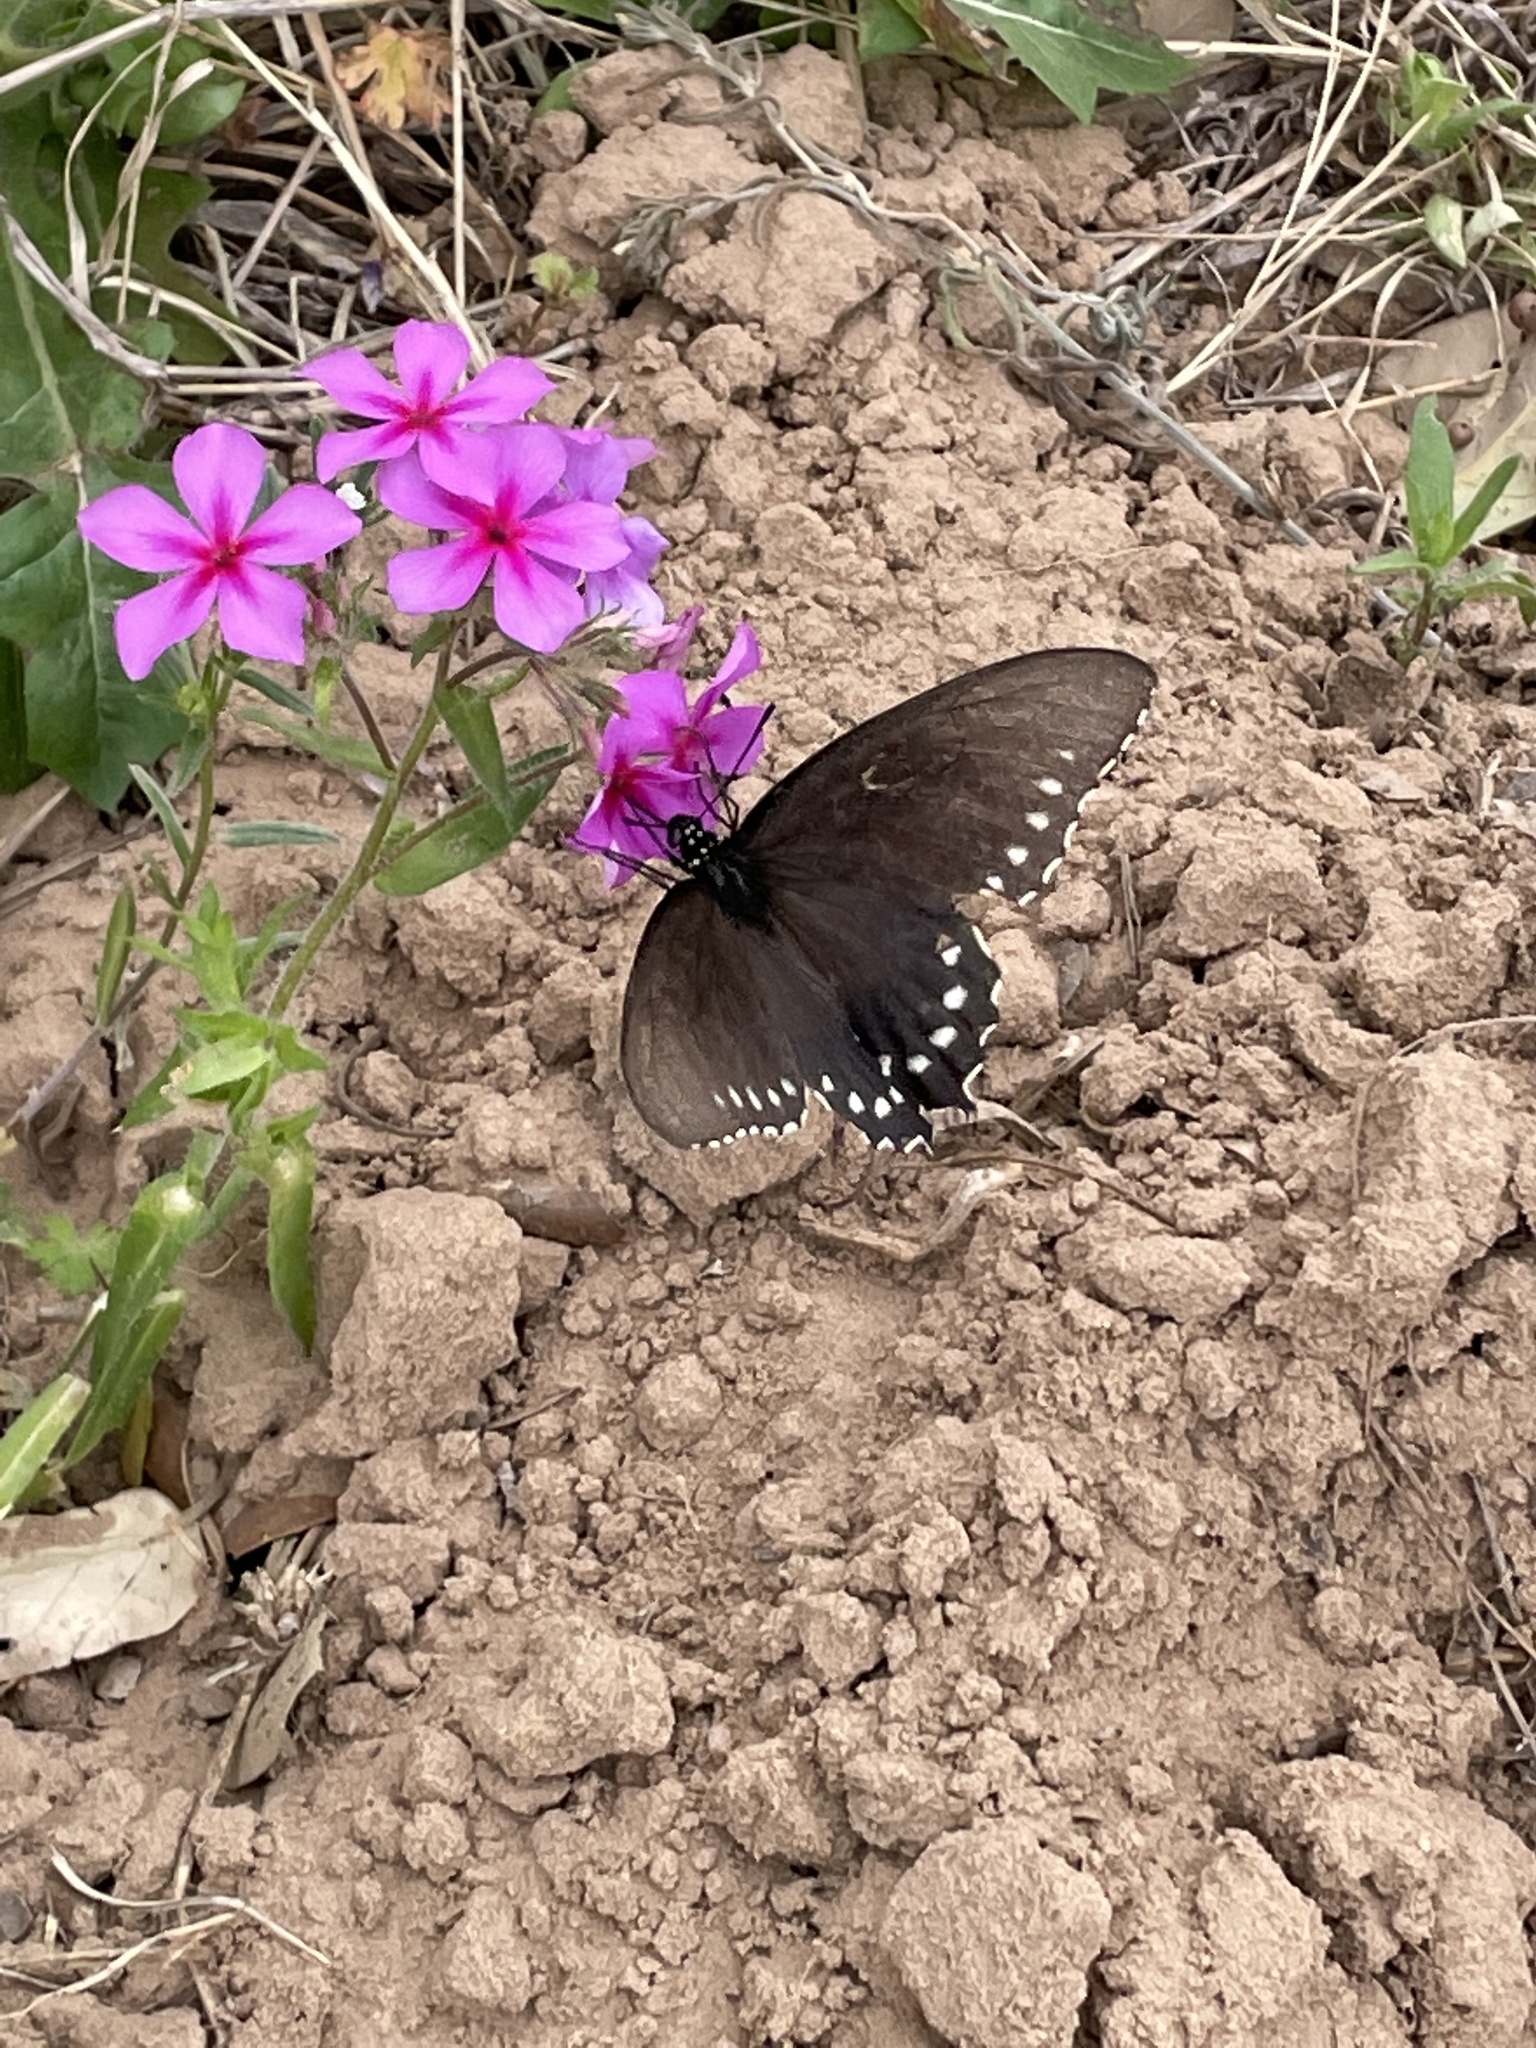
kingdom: Animalia
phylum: Arthropoda
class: Insecta
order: Lepidoptera
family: Papilionidae
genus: Battus
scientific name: Battus philenor
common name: Pipevine swallowtail
